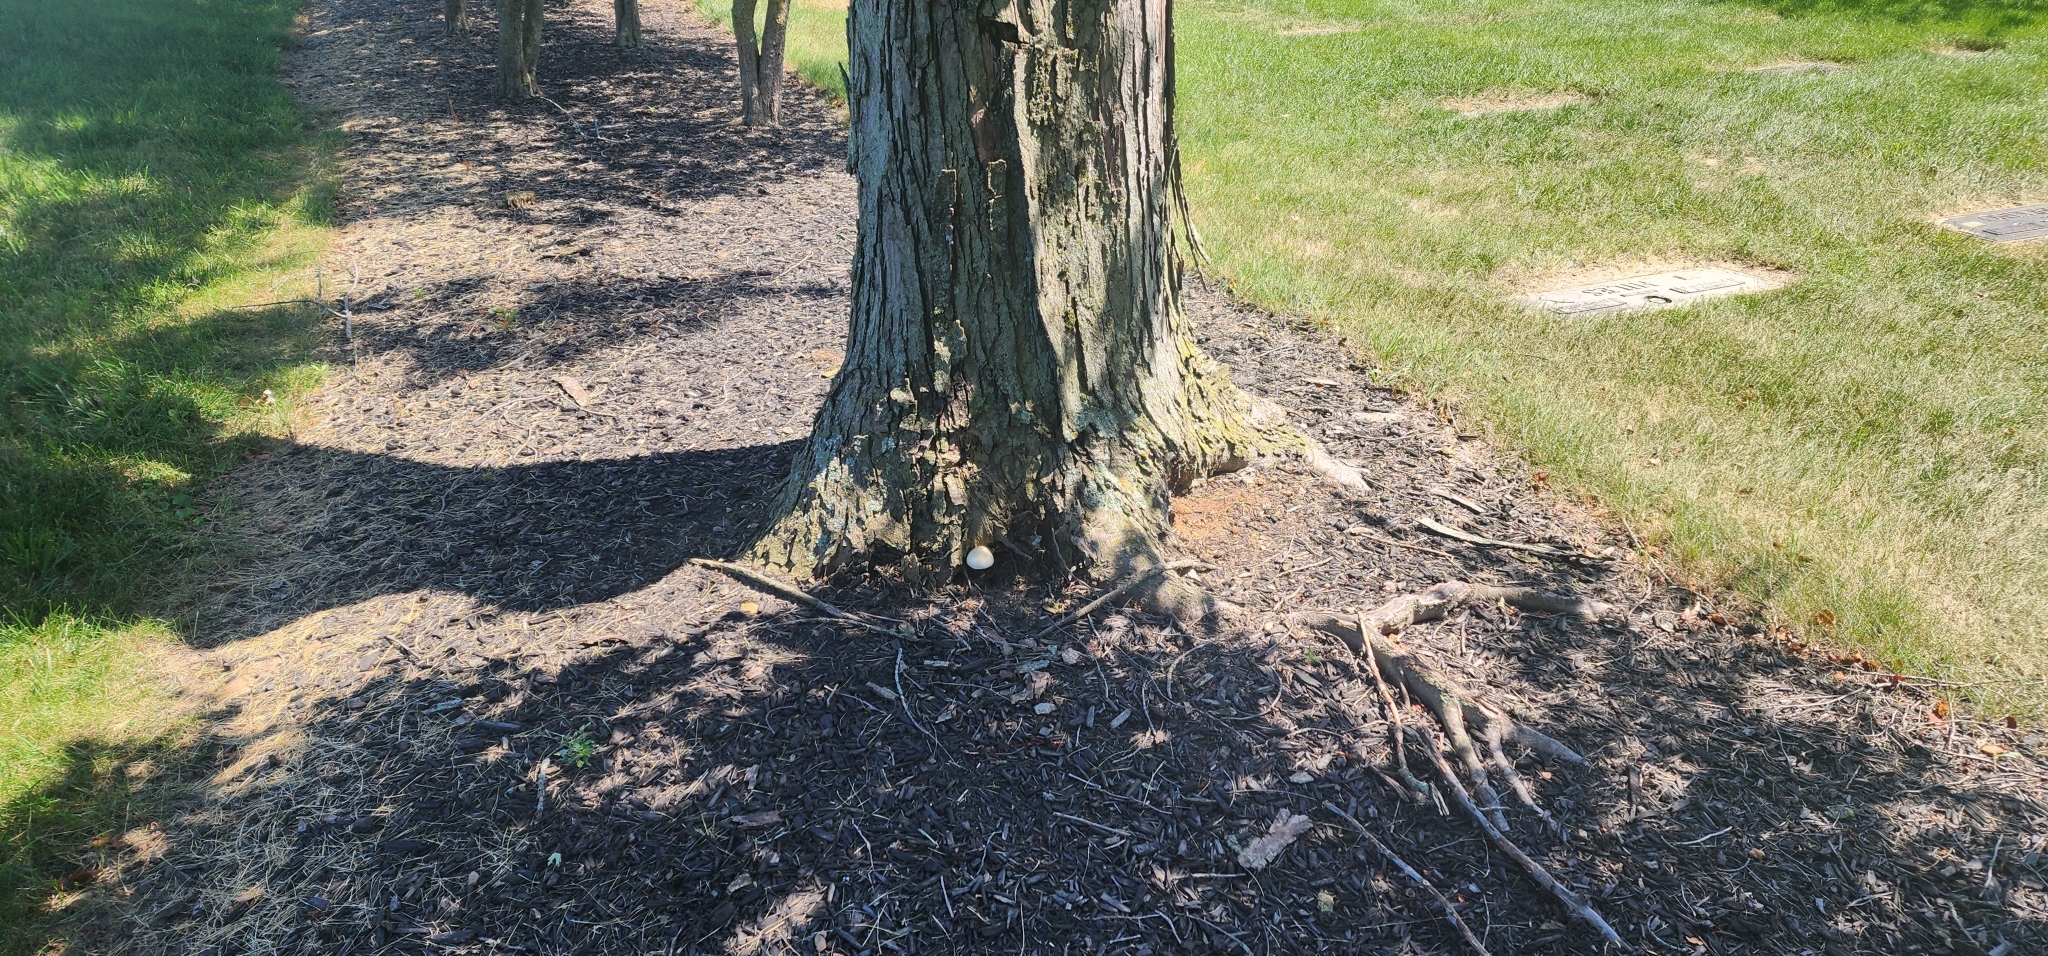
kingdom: Fungi
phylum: Basidiomycota
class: Agaricomycetes
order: Agaricales
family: Pluteaceae
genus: Volvariella
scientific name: Volvariella bombycina
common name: Silky rosegill
